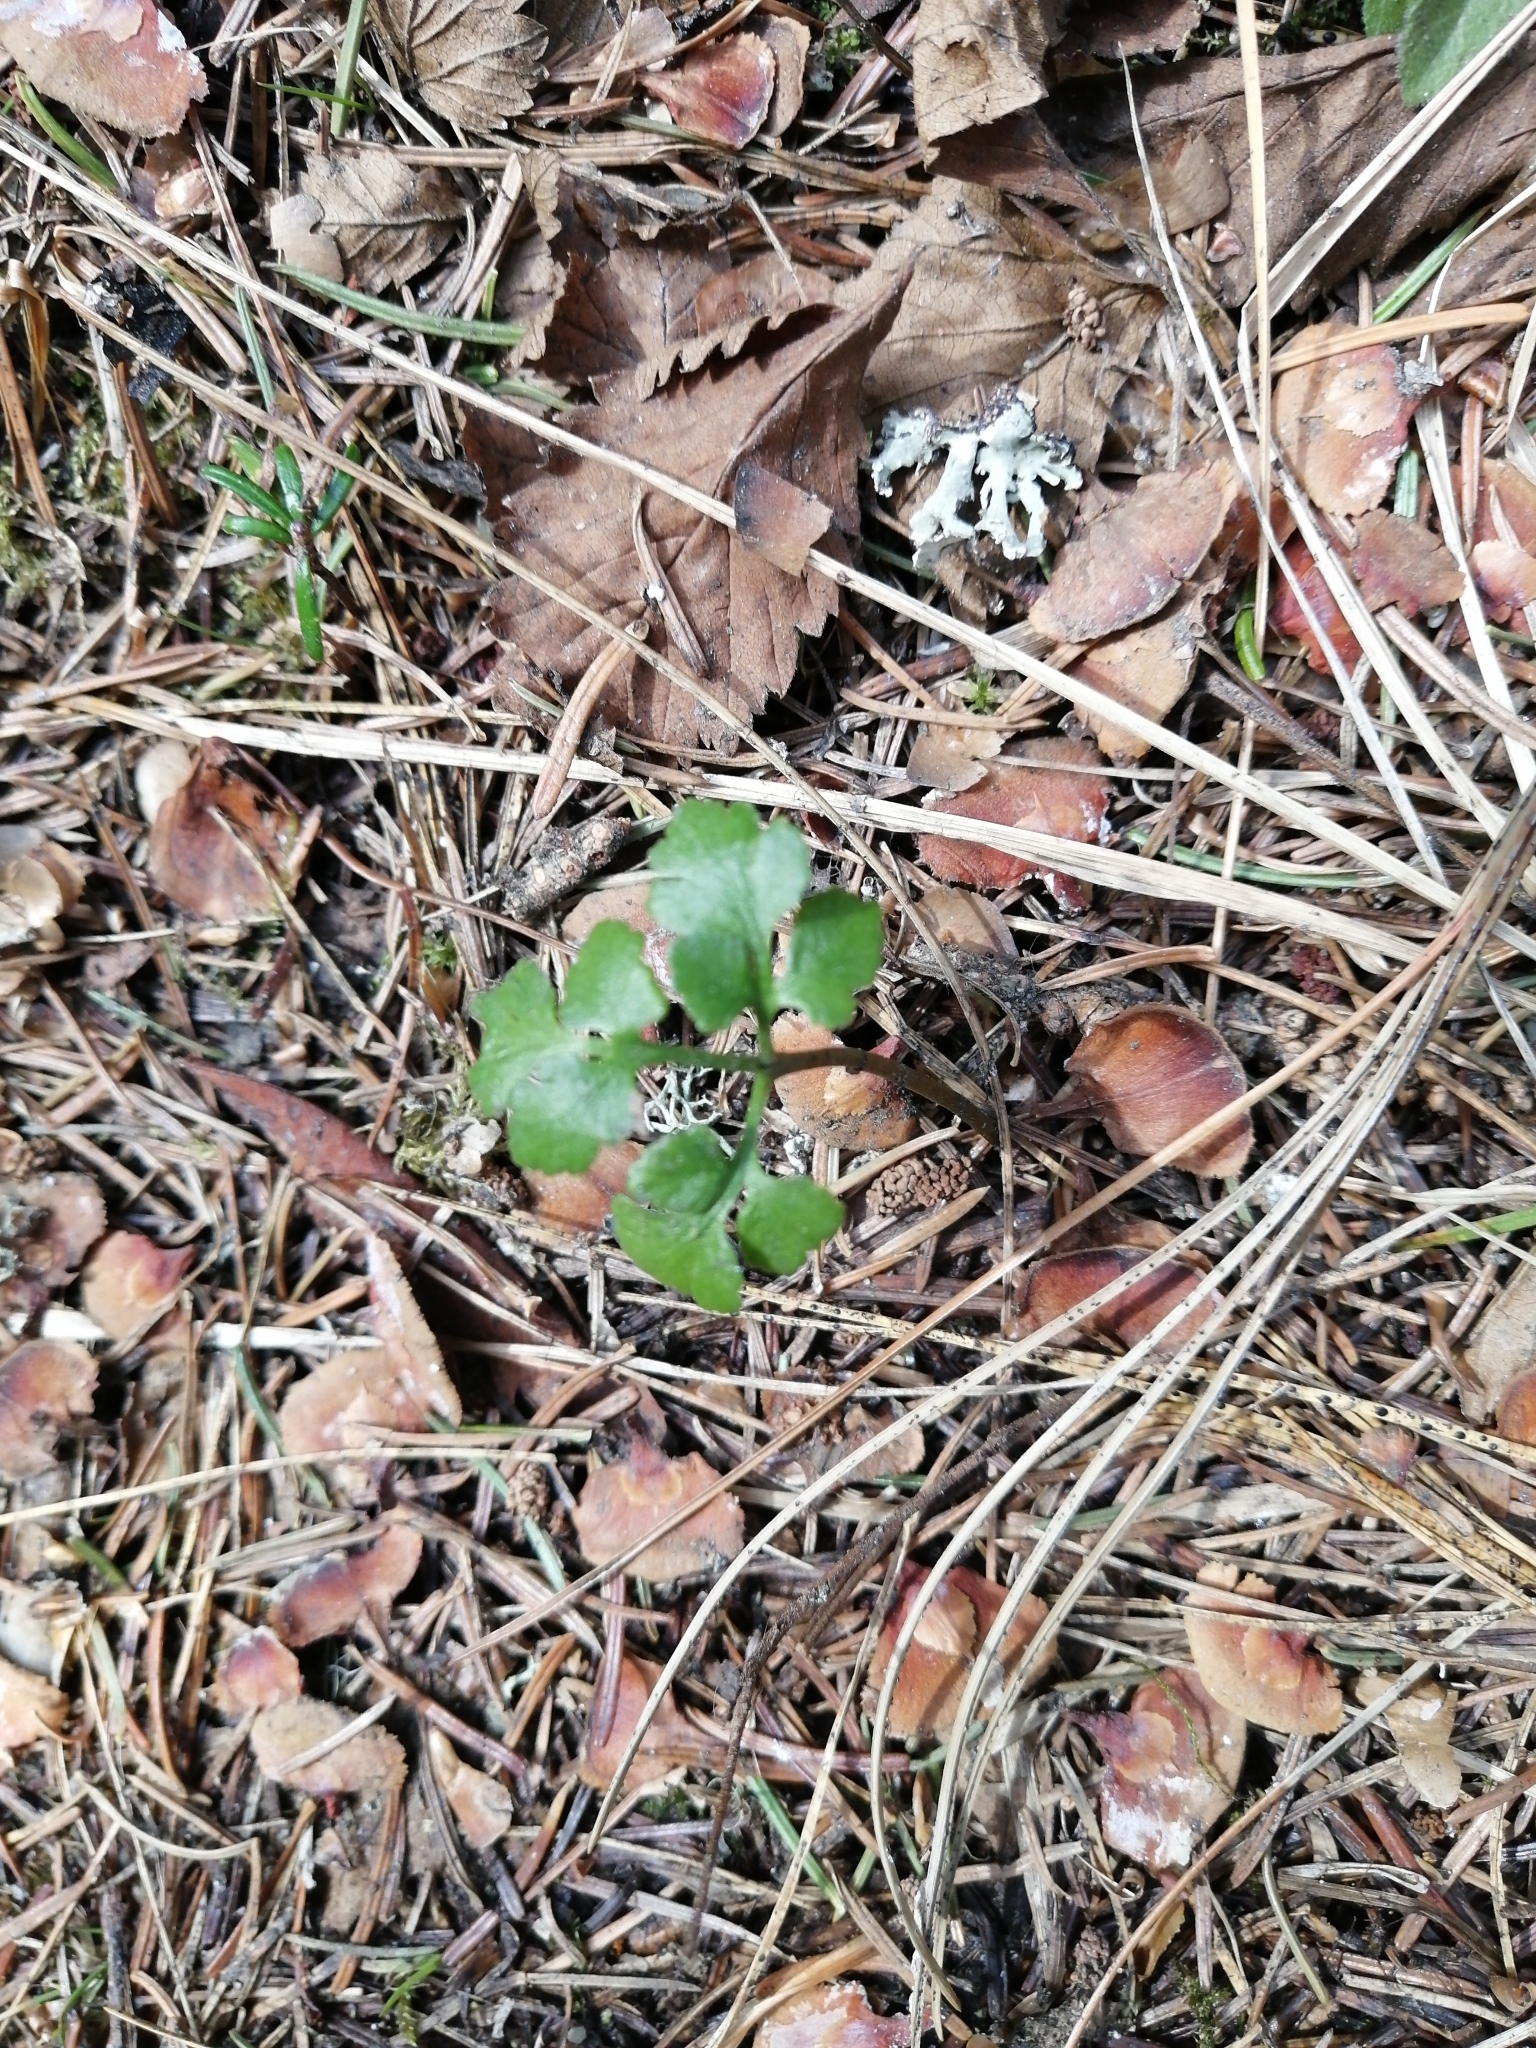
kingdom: Plantae
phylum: Tracheophyta
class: Polypodiopsida
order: Ophioglossales
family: Ophioglossaceae
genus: Sceptridium
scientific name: Sceptridium multifidum
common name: Leathery grape fern
